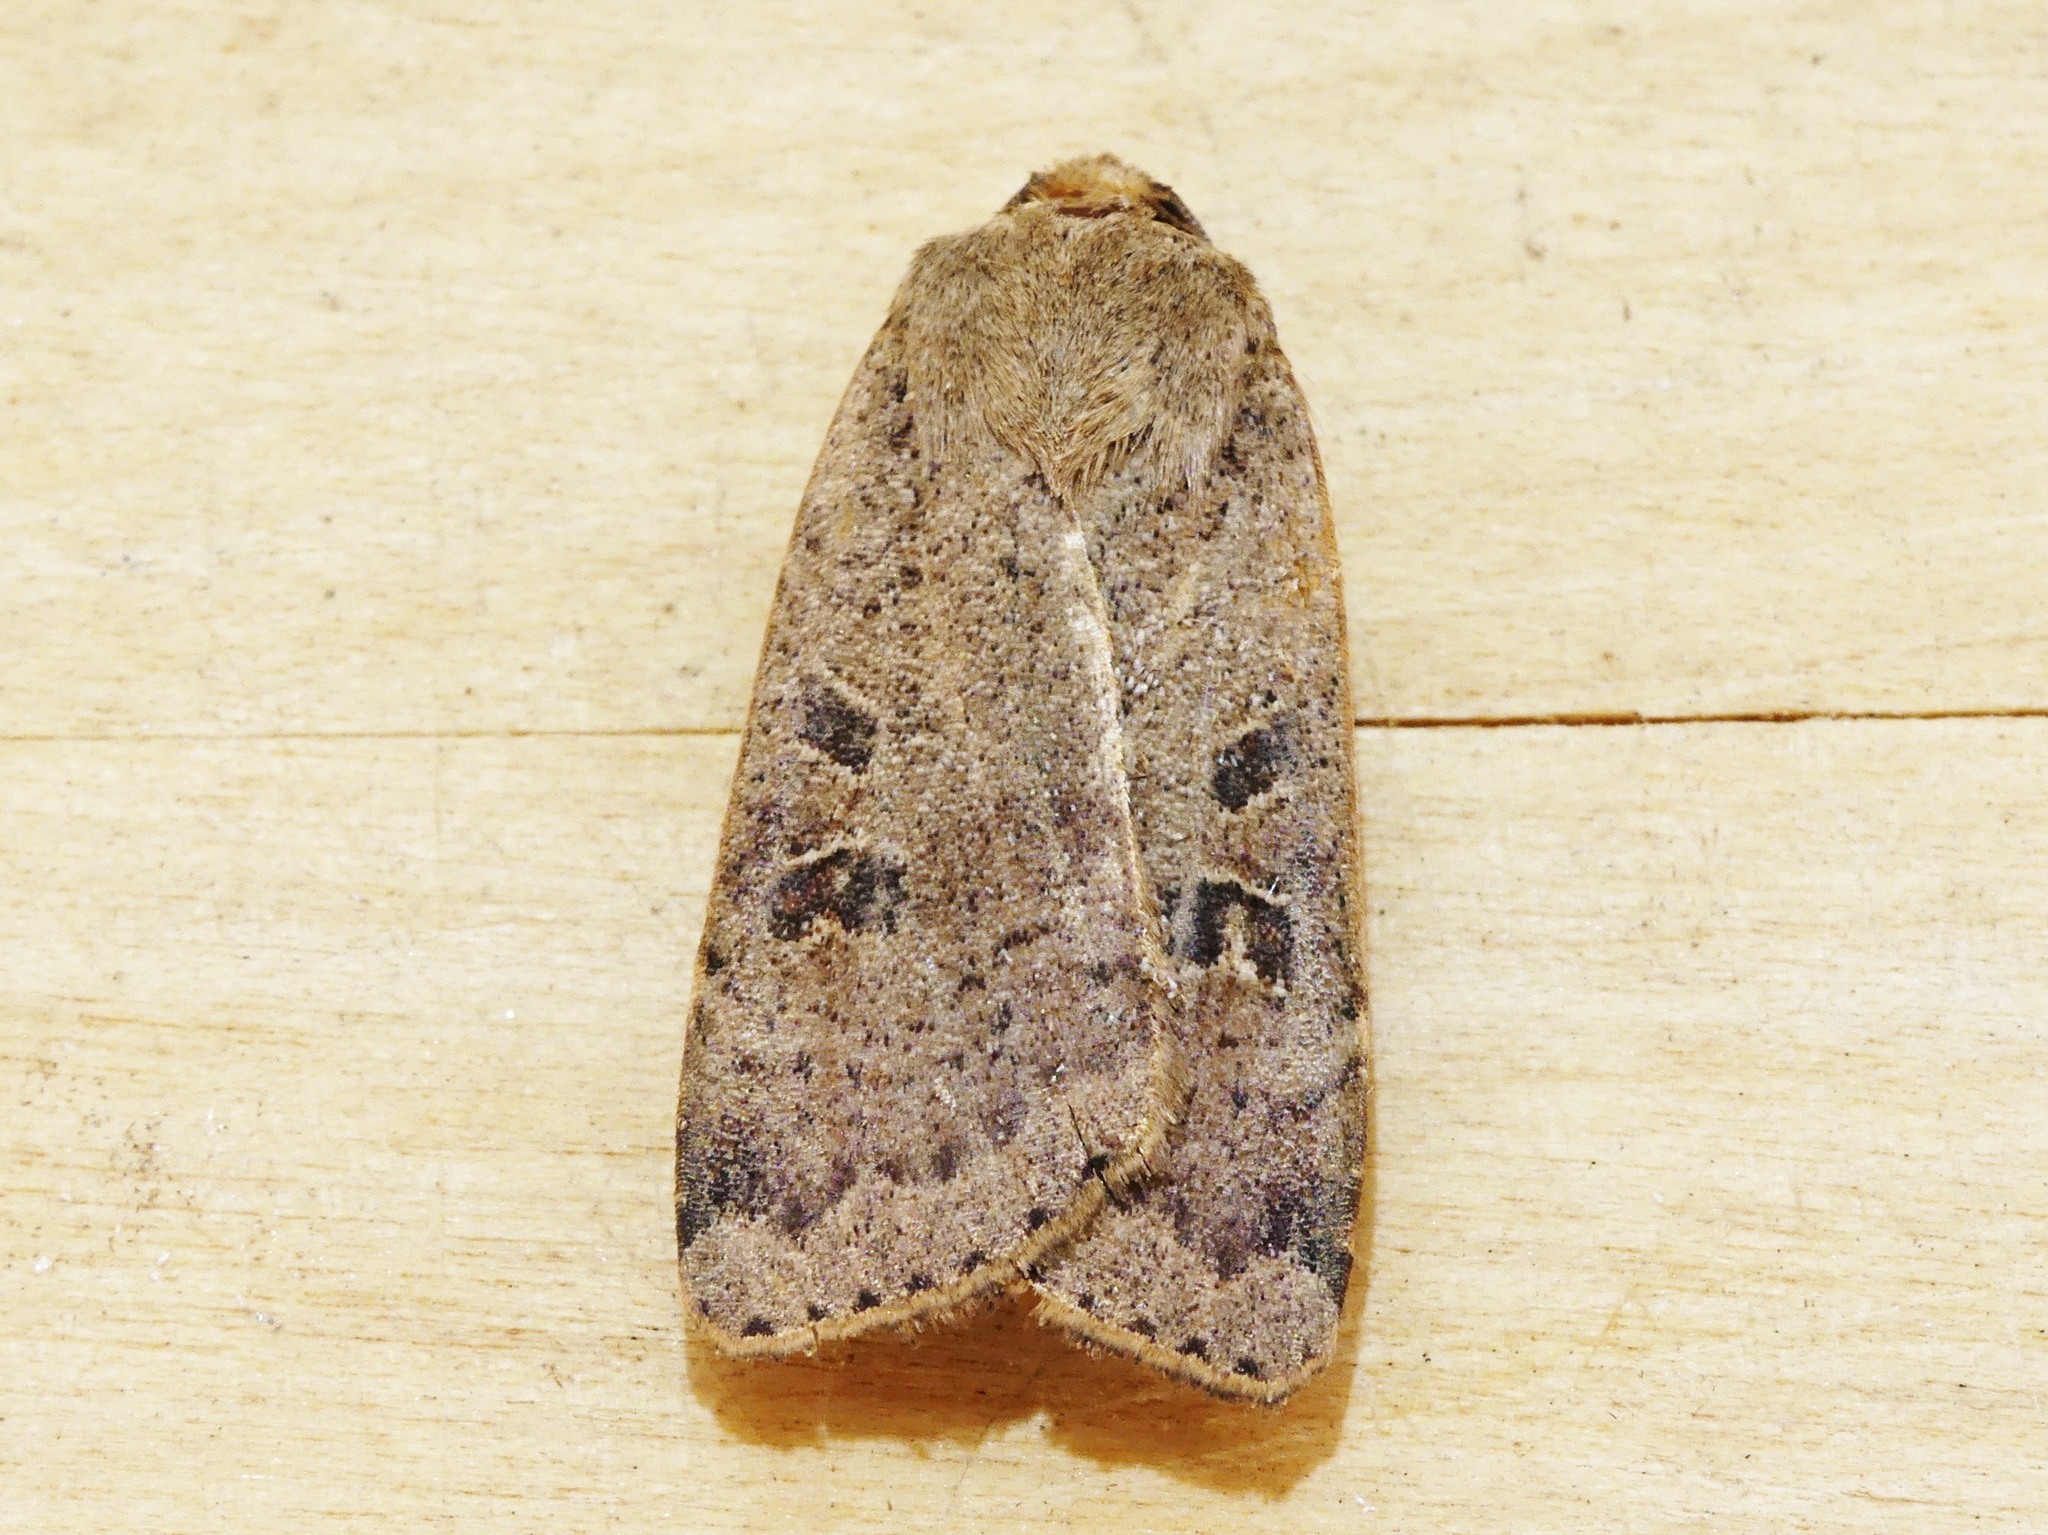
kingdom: Animalia
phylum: Arthropoda
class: Insecta
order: Lepidoptera
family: Noctuidae
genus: Noctua
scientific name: Noctua comes
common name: Lesser yellow underwing
